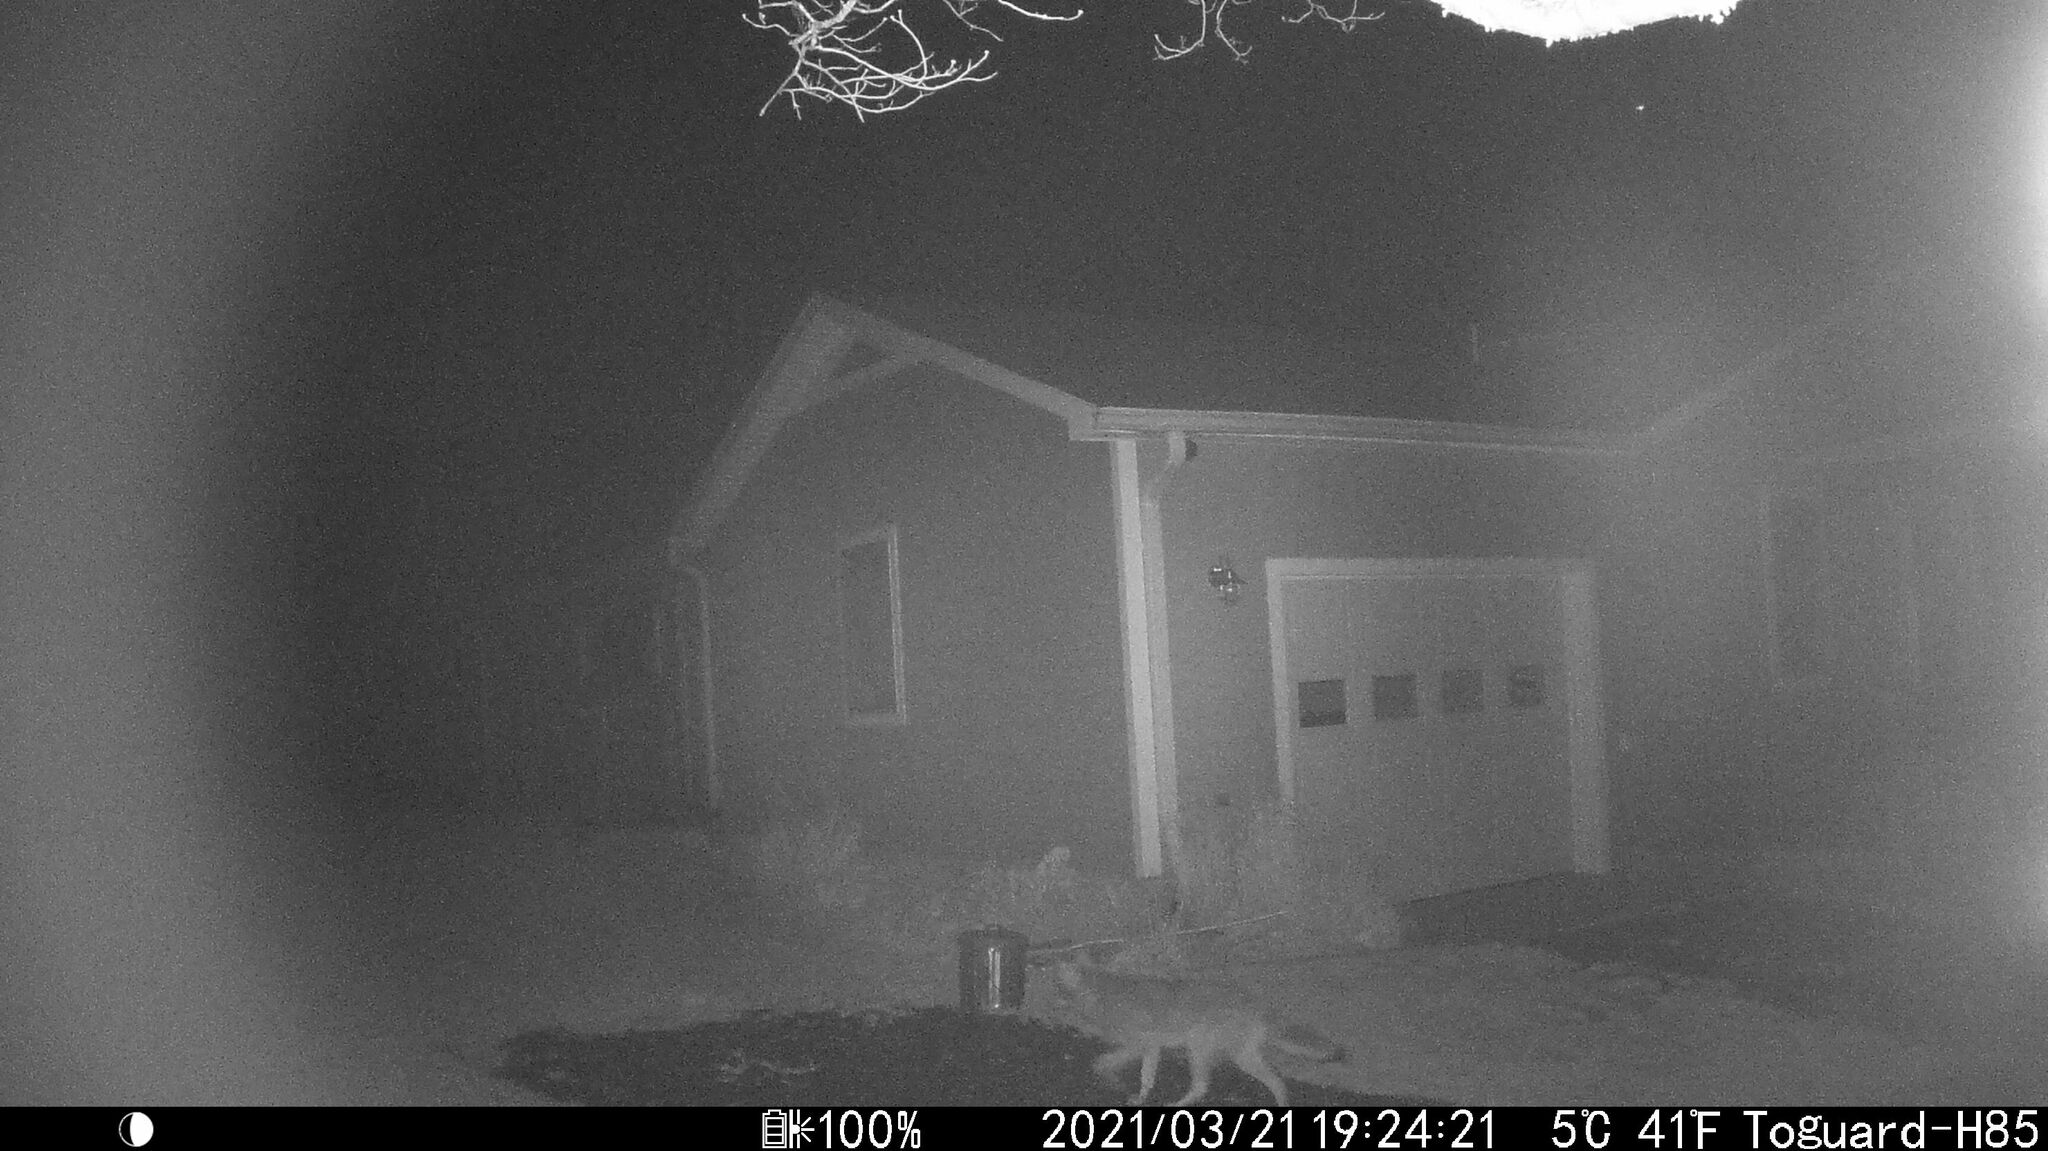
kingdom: Animalia
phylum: Chordata
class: Mammalia
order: Carnivora
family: Canidae
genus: Canis
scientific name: Canis latrans
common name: Coyote
